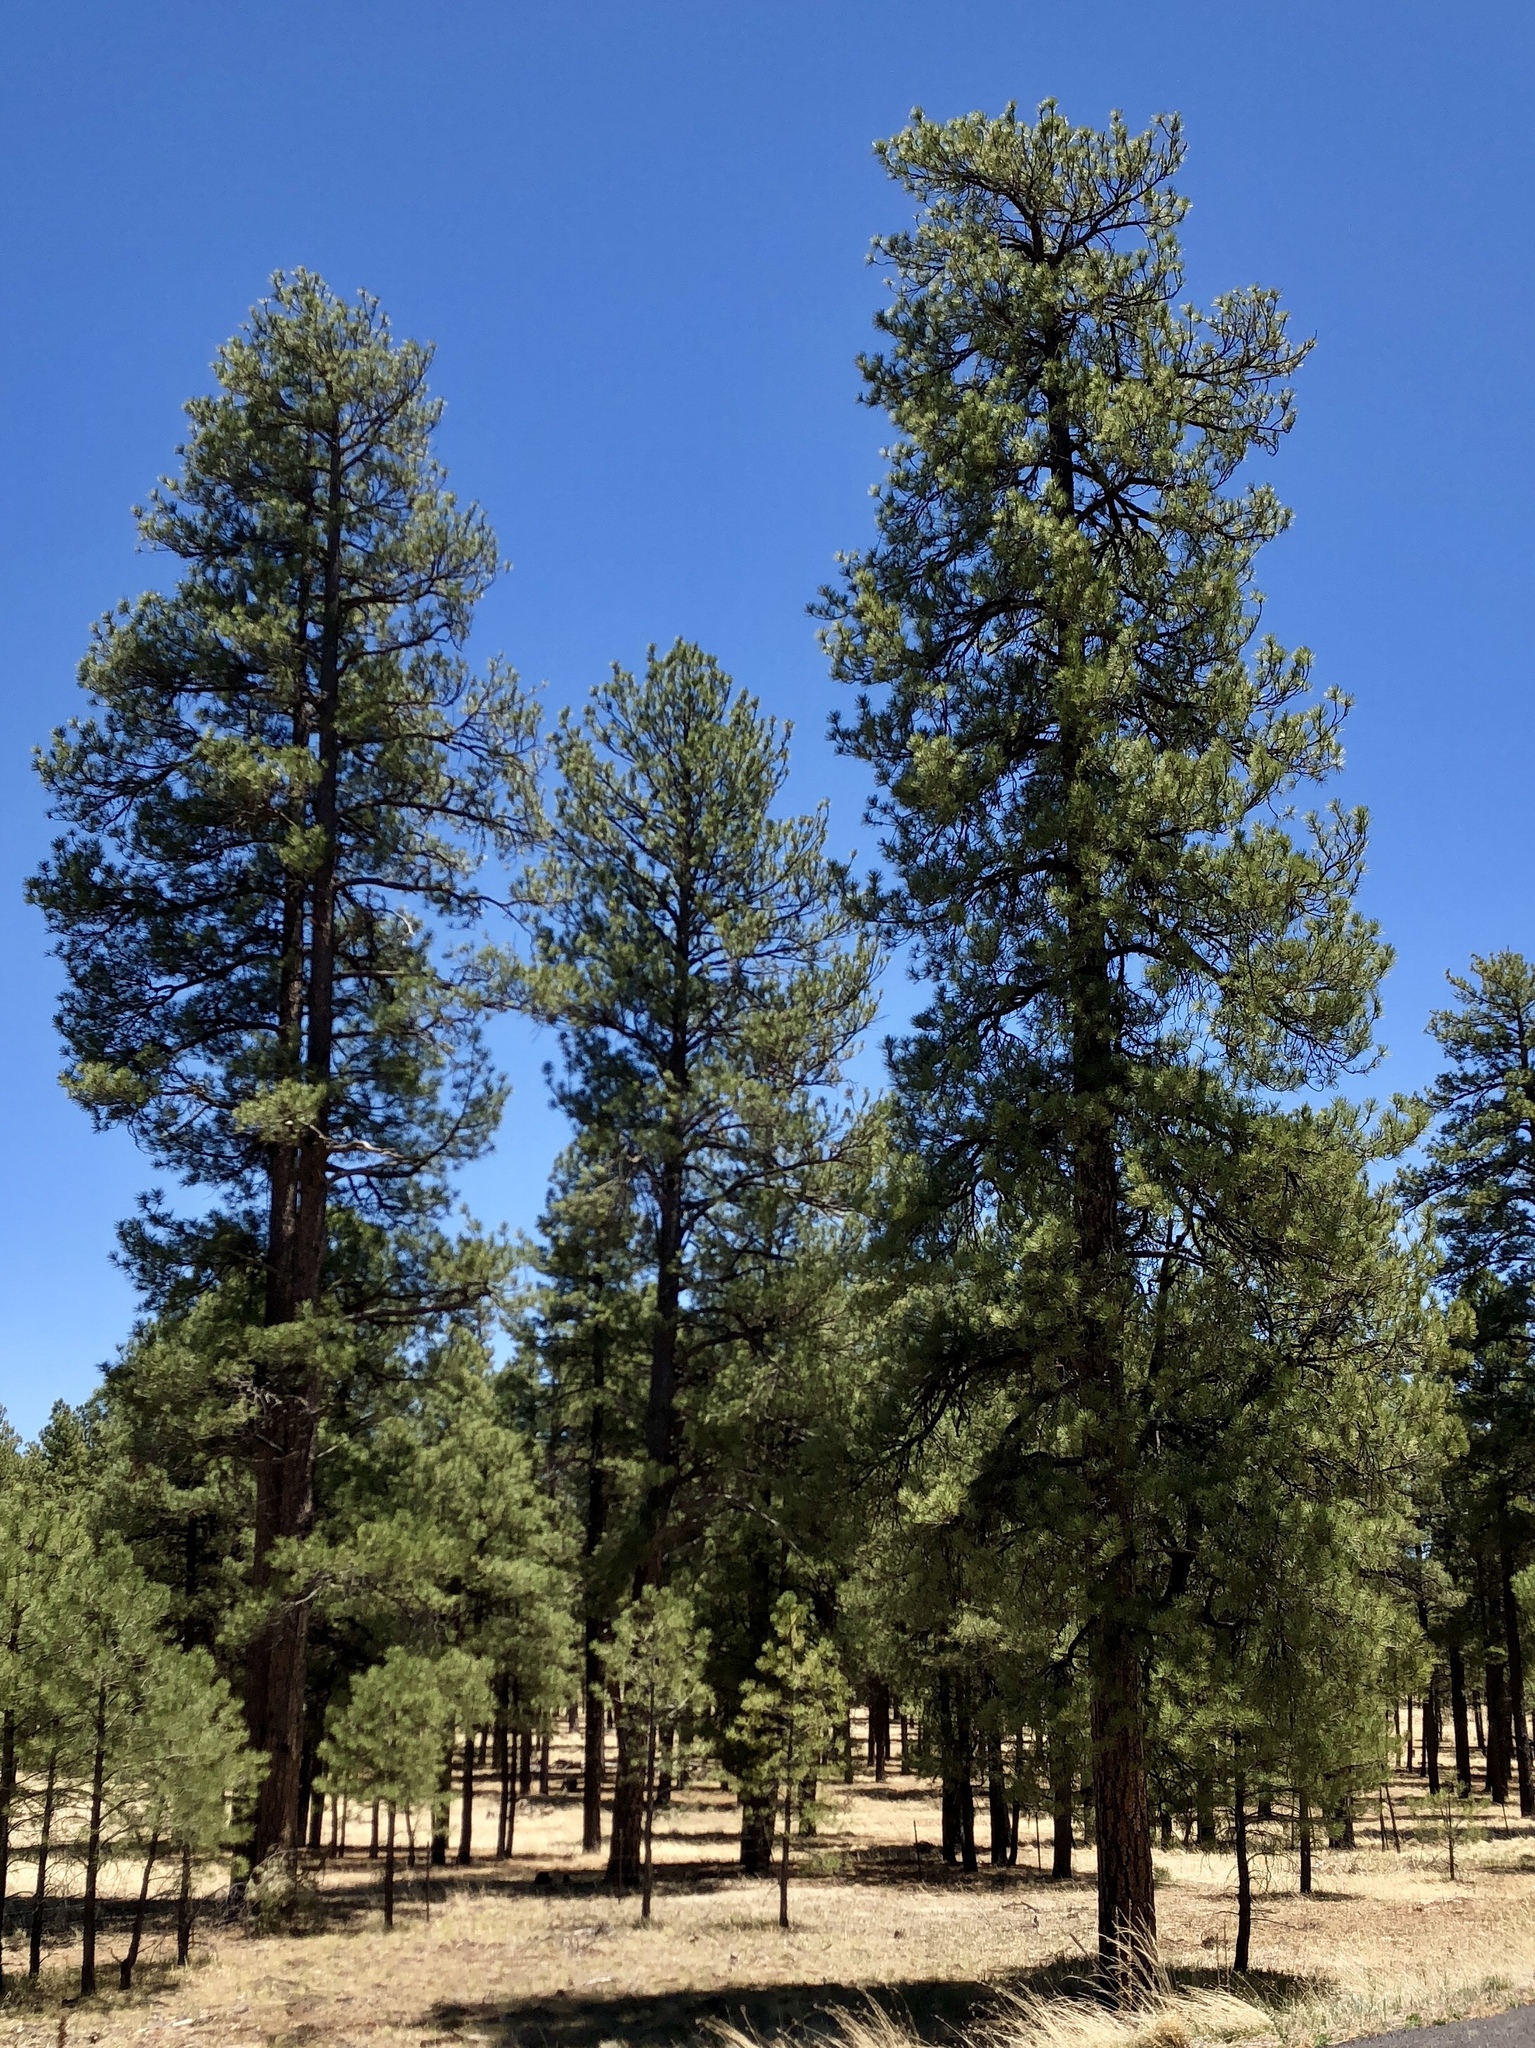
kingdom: Plantae
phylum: Tracheophyta
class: Pinopsida
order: Pinales
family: Pinaceae
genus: Pinus
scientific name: Pinus ponderosa
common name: Western yellow-pine
